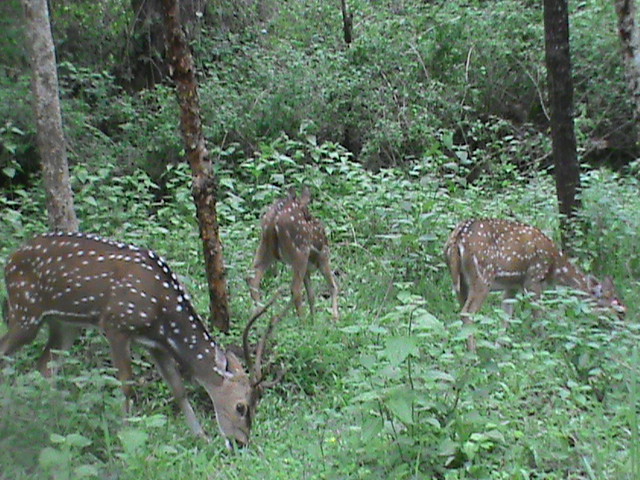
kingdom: Animalia
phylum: Chordata
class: Mammalia
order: Artiodactyla
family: Cervidae
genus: Axis
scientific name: Axis axis
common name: Chital
